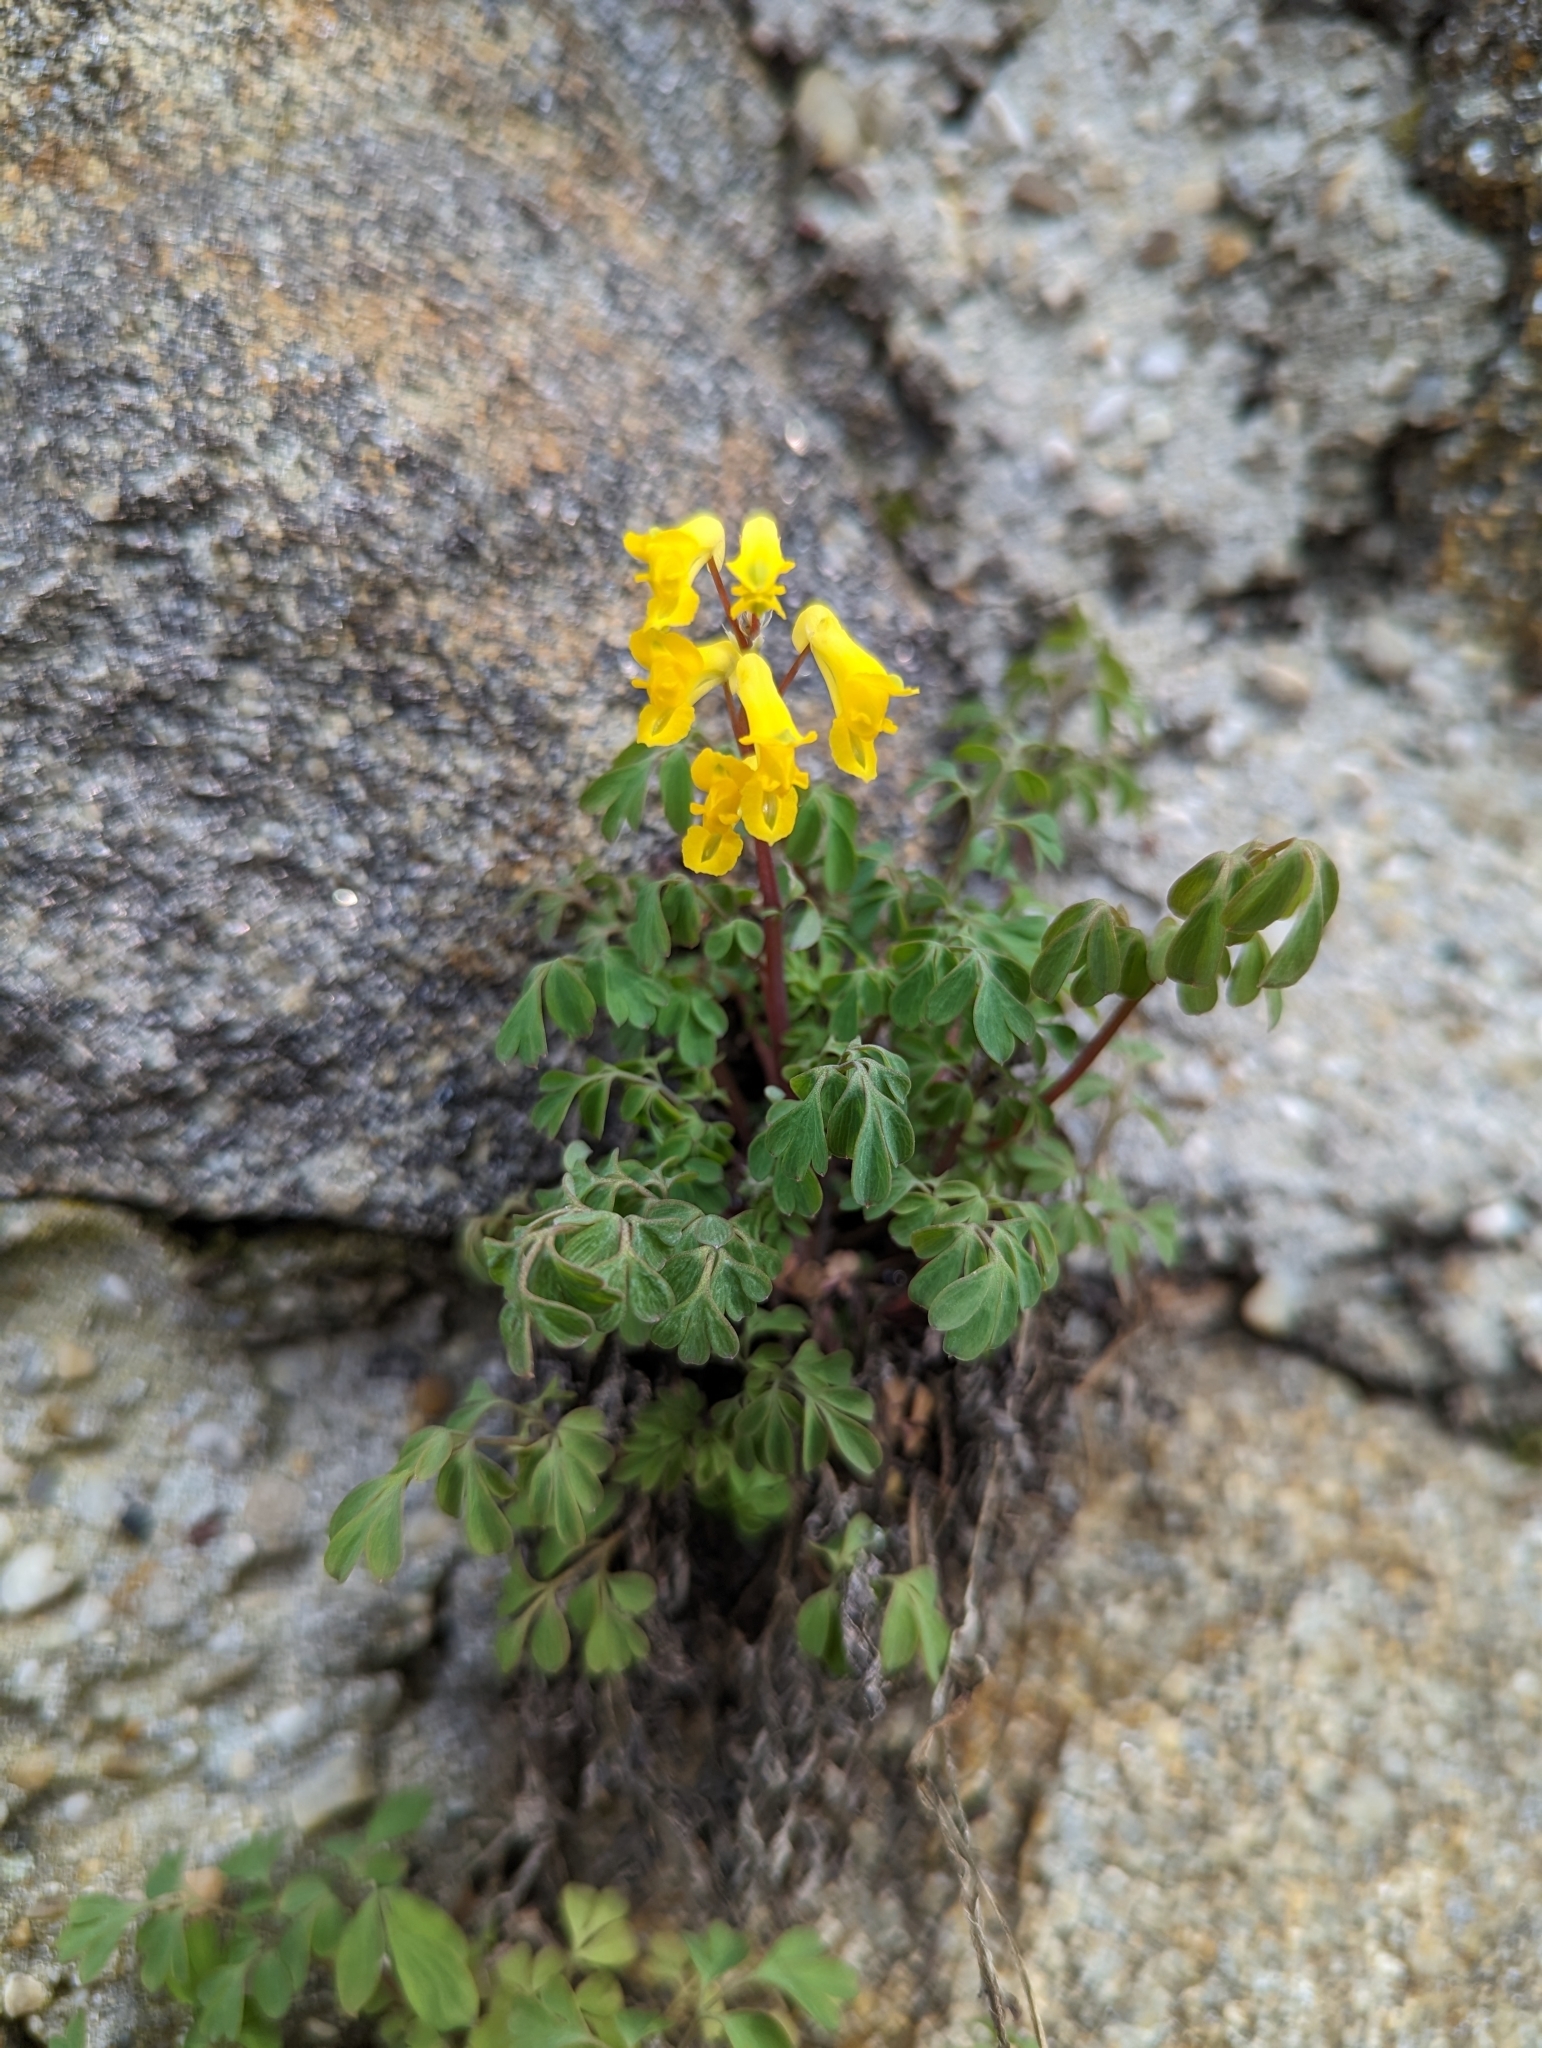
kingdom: Plantae
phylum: Tracheophyta
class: Magnoliopsida
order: Ranunculales
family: Papaveraceae
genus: Pseudofumaria
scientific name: Pseudofumaria lutea
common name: Yellow corydalis
